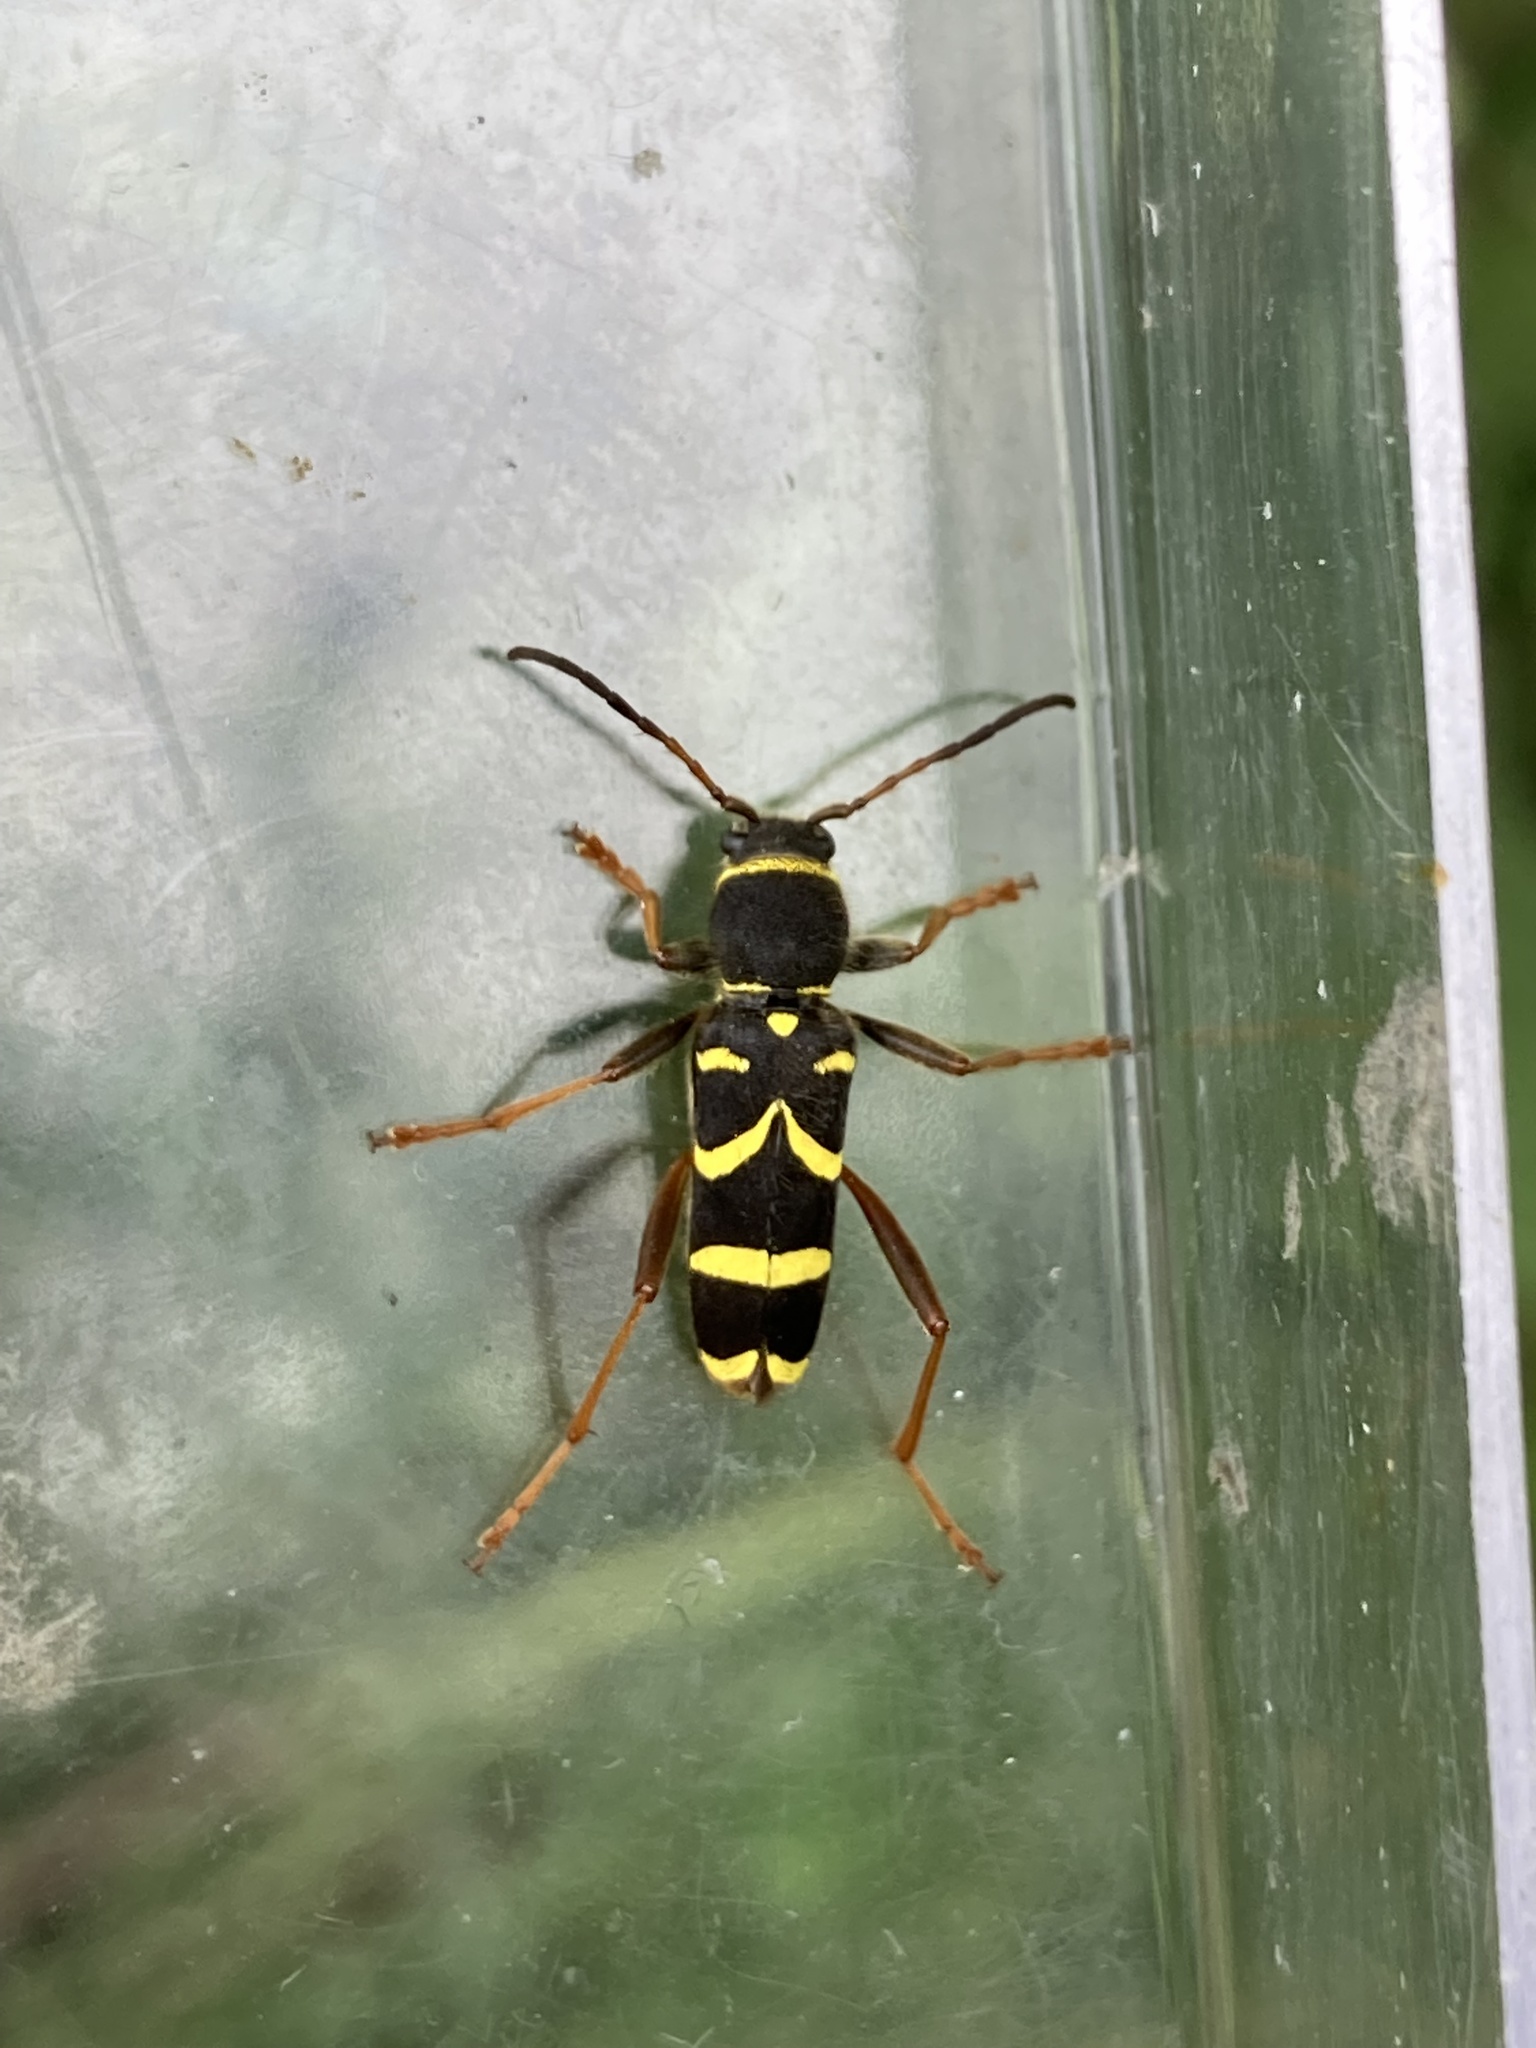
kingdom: Animalia
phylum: Arthropoda
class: Insecta
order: Coleoptera
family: Cerambycidae
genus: Clytus
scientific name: Clytus arietis
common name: Wasp beetle
